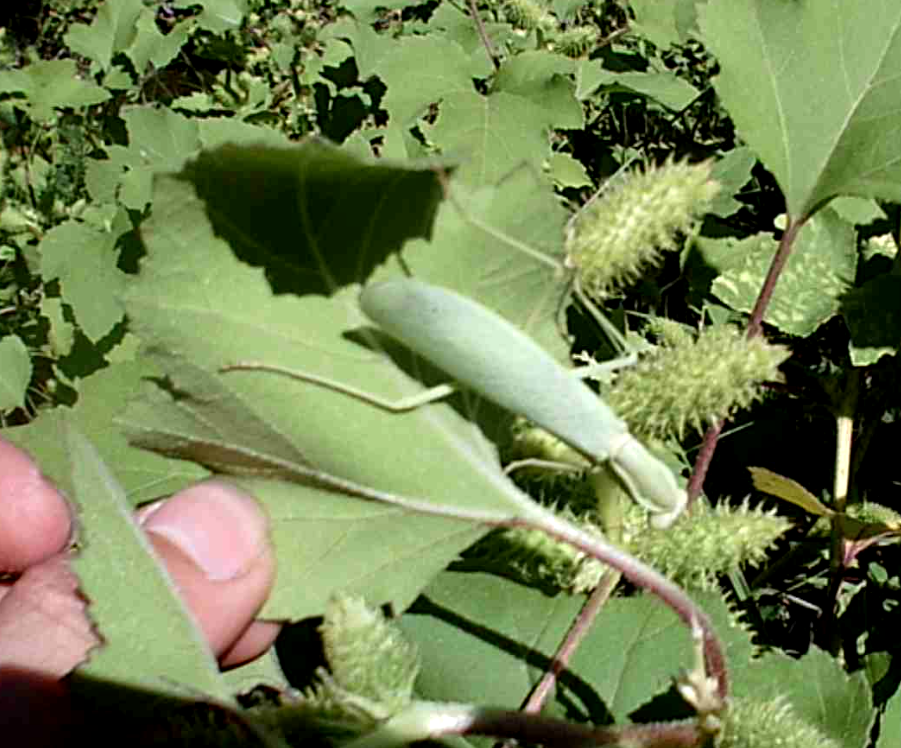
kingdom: Animalia
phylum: Arthropoda
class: Insecta
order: Mantodea
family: Mantidae
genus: Hierodula
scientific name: Hierodula transcaucasica
